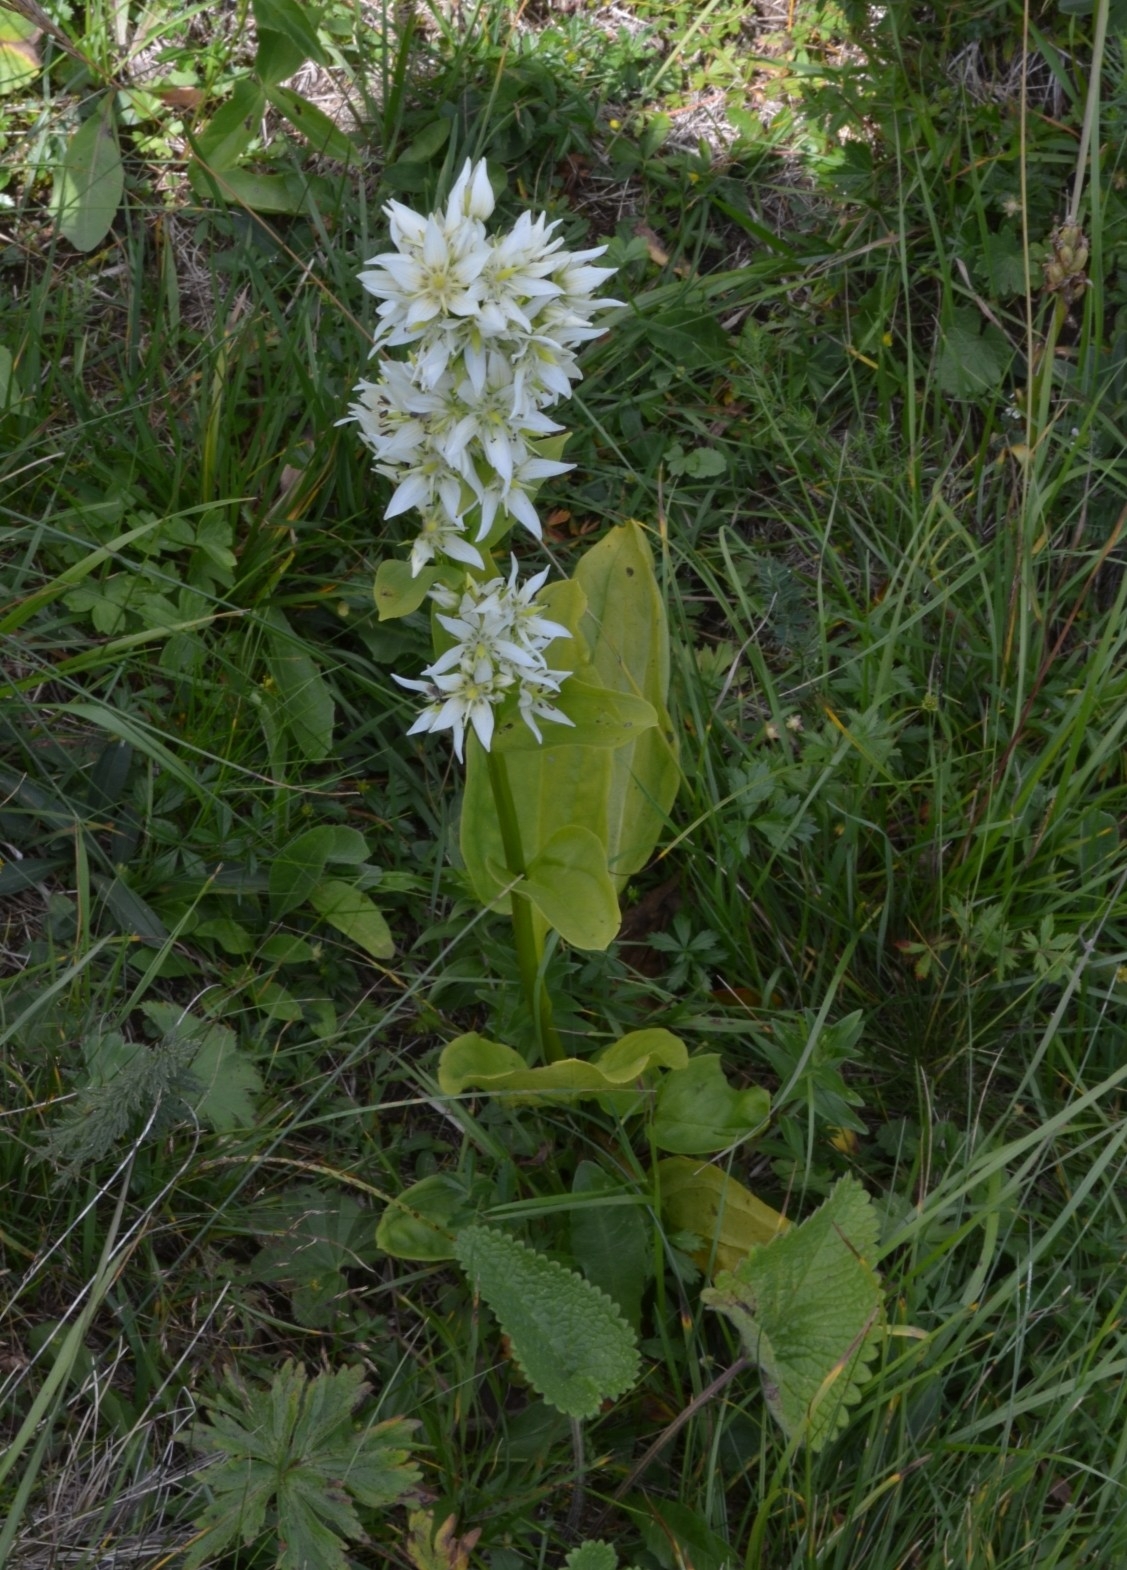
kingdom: Plantae
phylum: Tracheophyta
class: Magnoliopsida
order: Gentianales
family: Gentianaceae
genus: Swertia
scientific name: Swertia iberica
